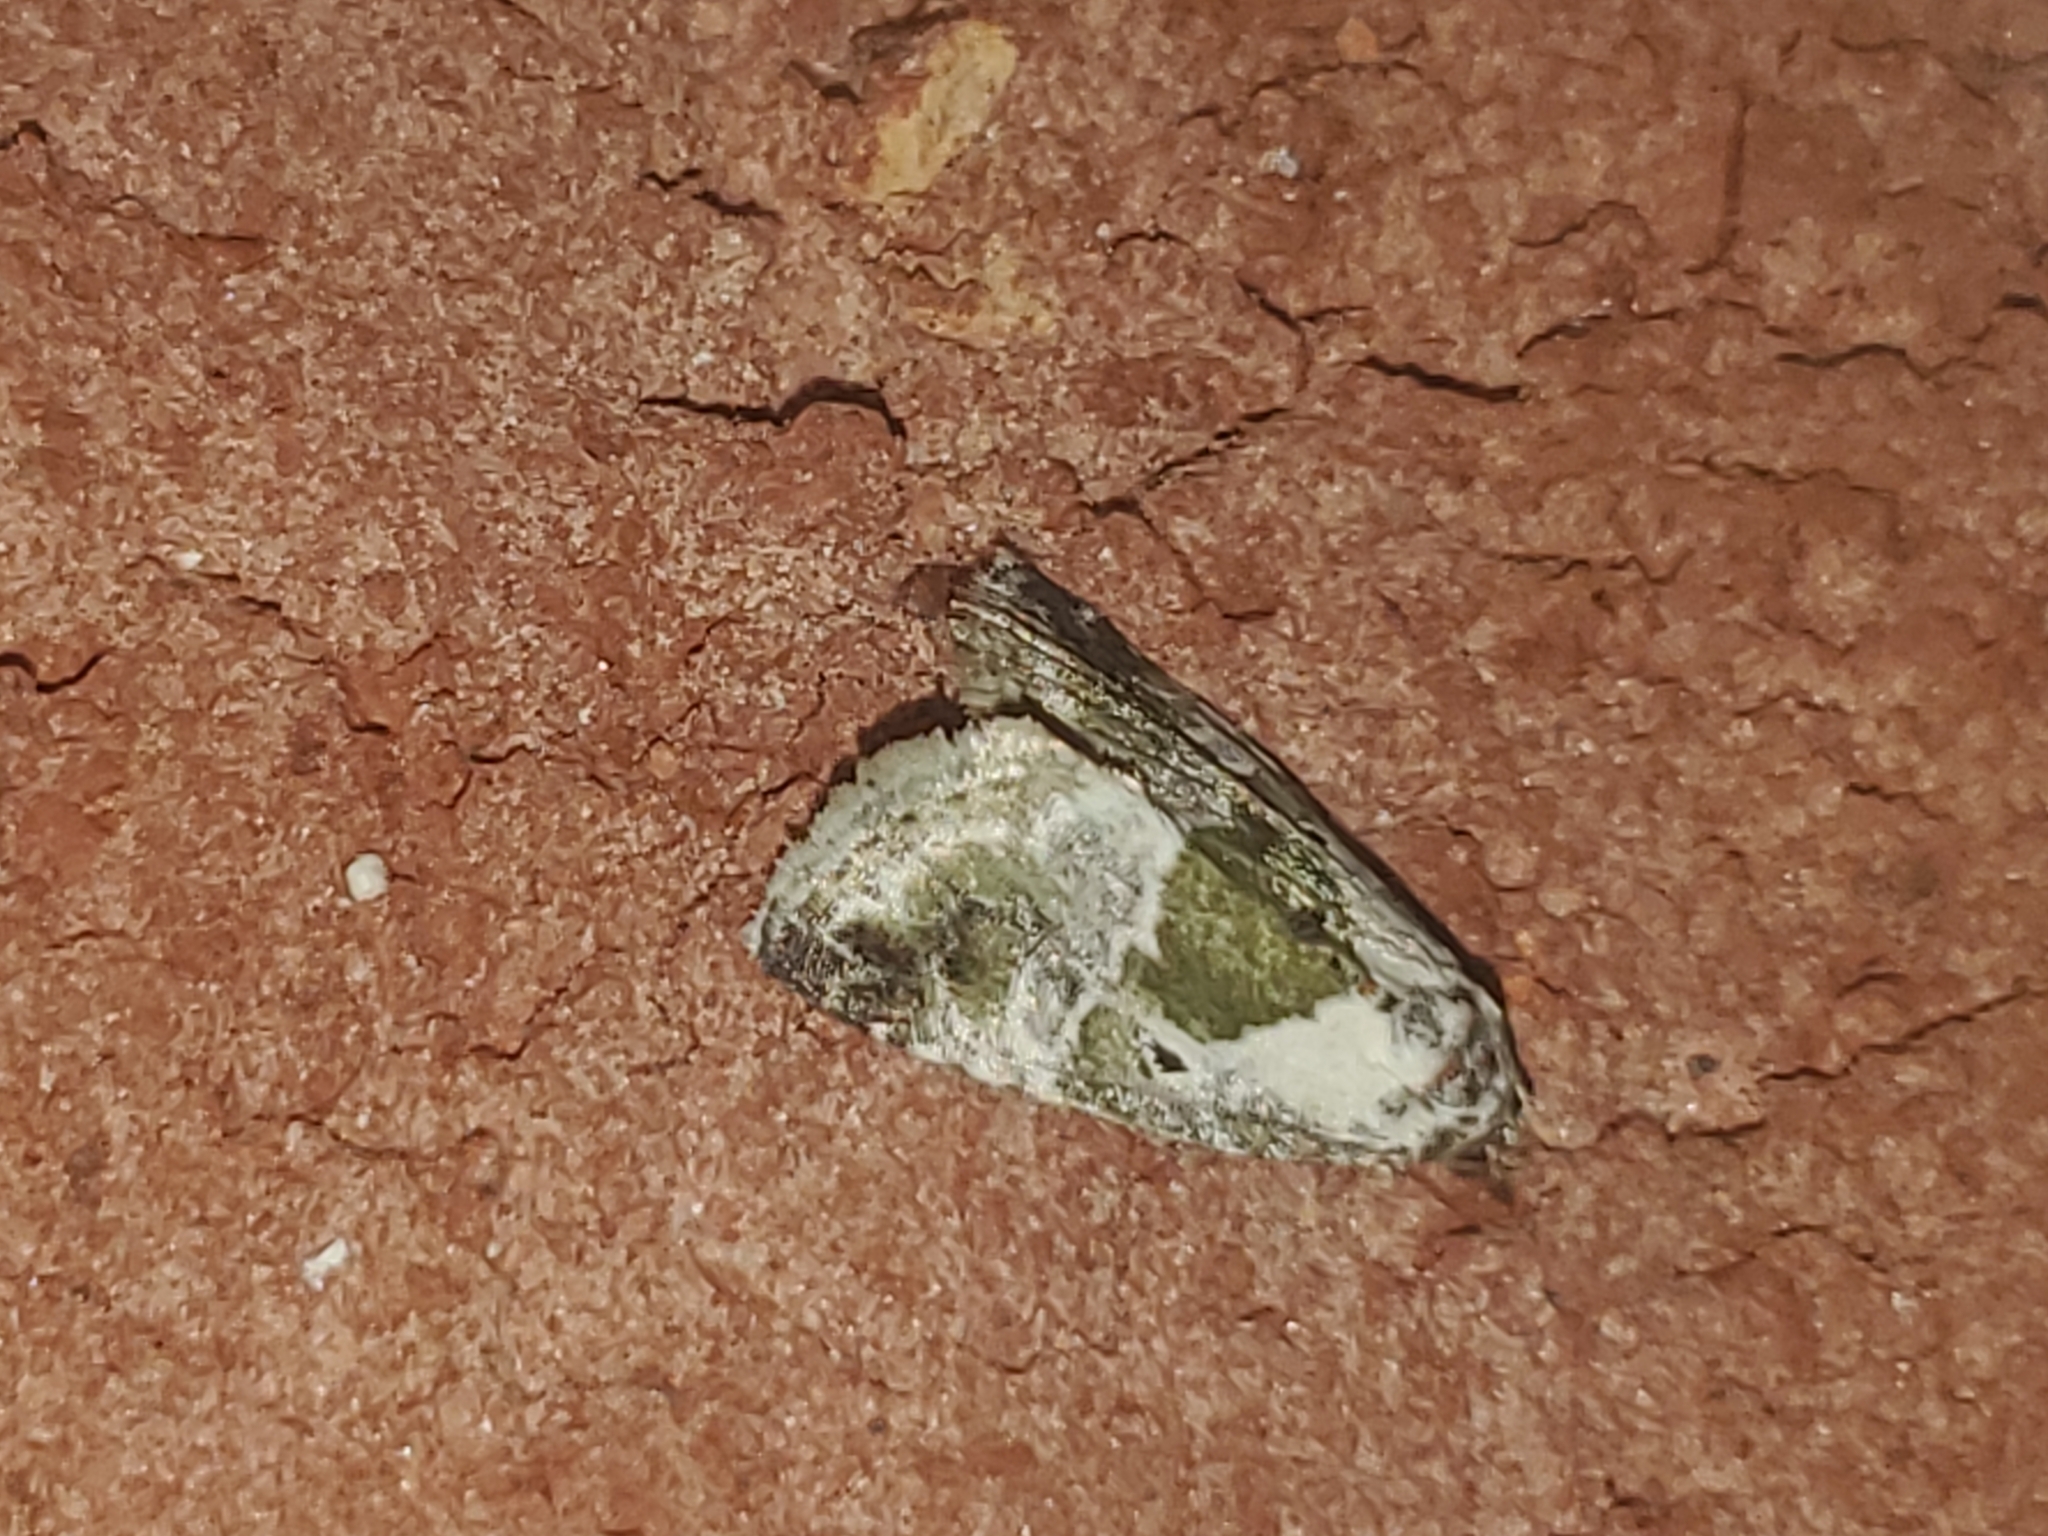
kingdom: Animalia
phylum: Arthropoda
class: Insecta
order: Lepidoptera
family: Noctuidae
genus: Maliattha
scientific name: Maliattha synochitis
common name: Black-dotted glyph
